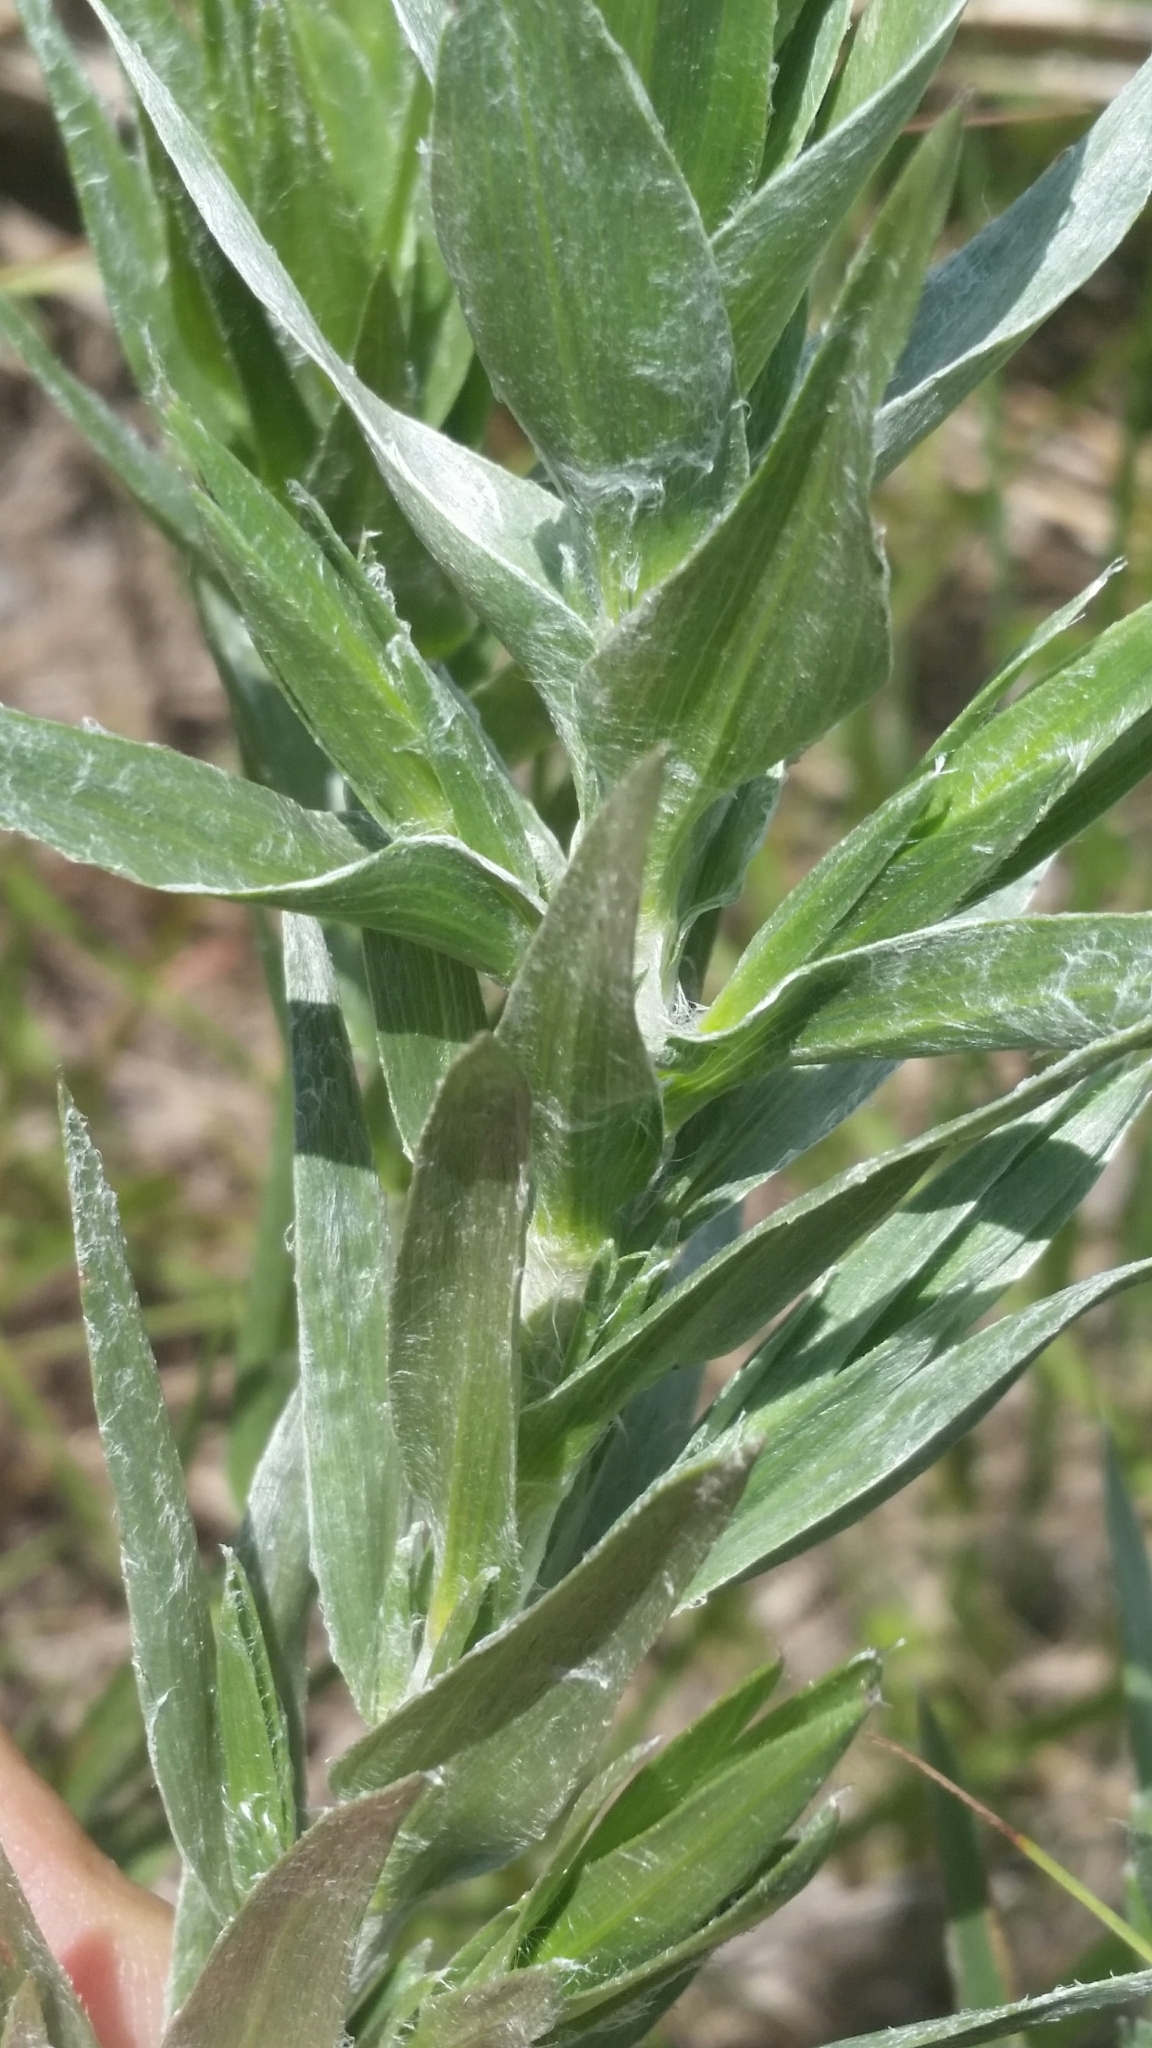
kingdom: Plantae
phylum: Tracheophyta
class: Magnoliopsida
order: Asterales
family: Asteraceae
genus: Pityopsis
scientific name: Pityopsis aequilifolia
